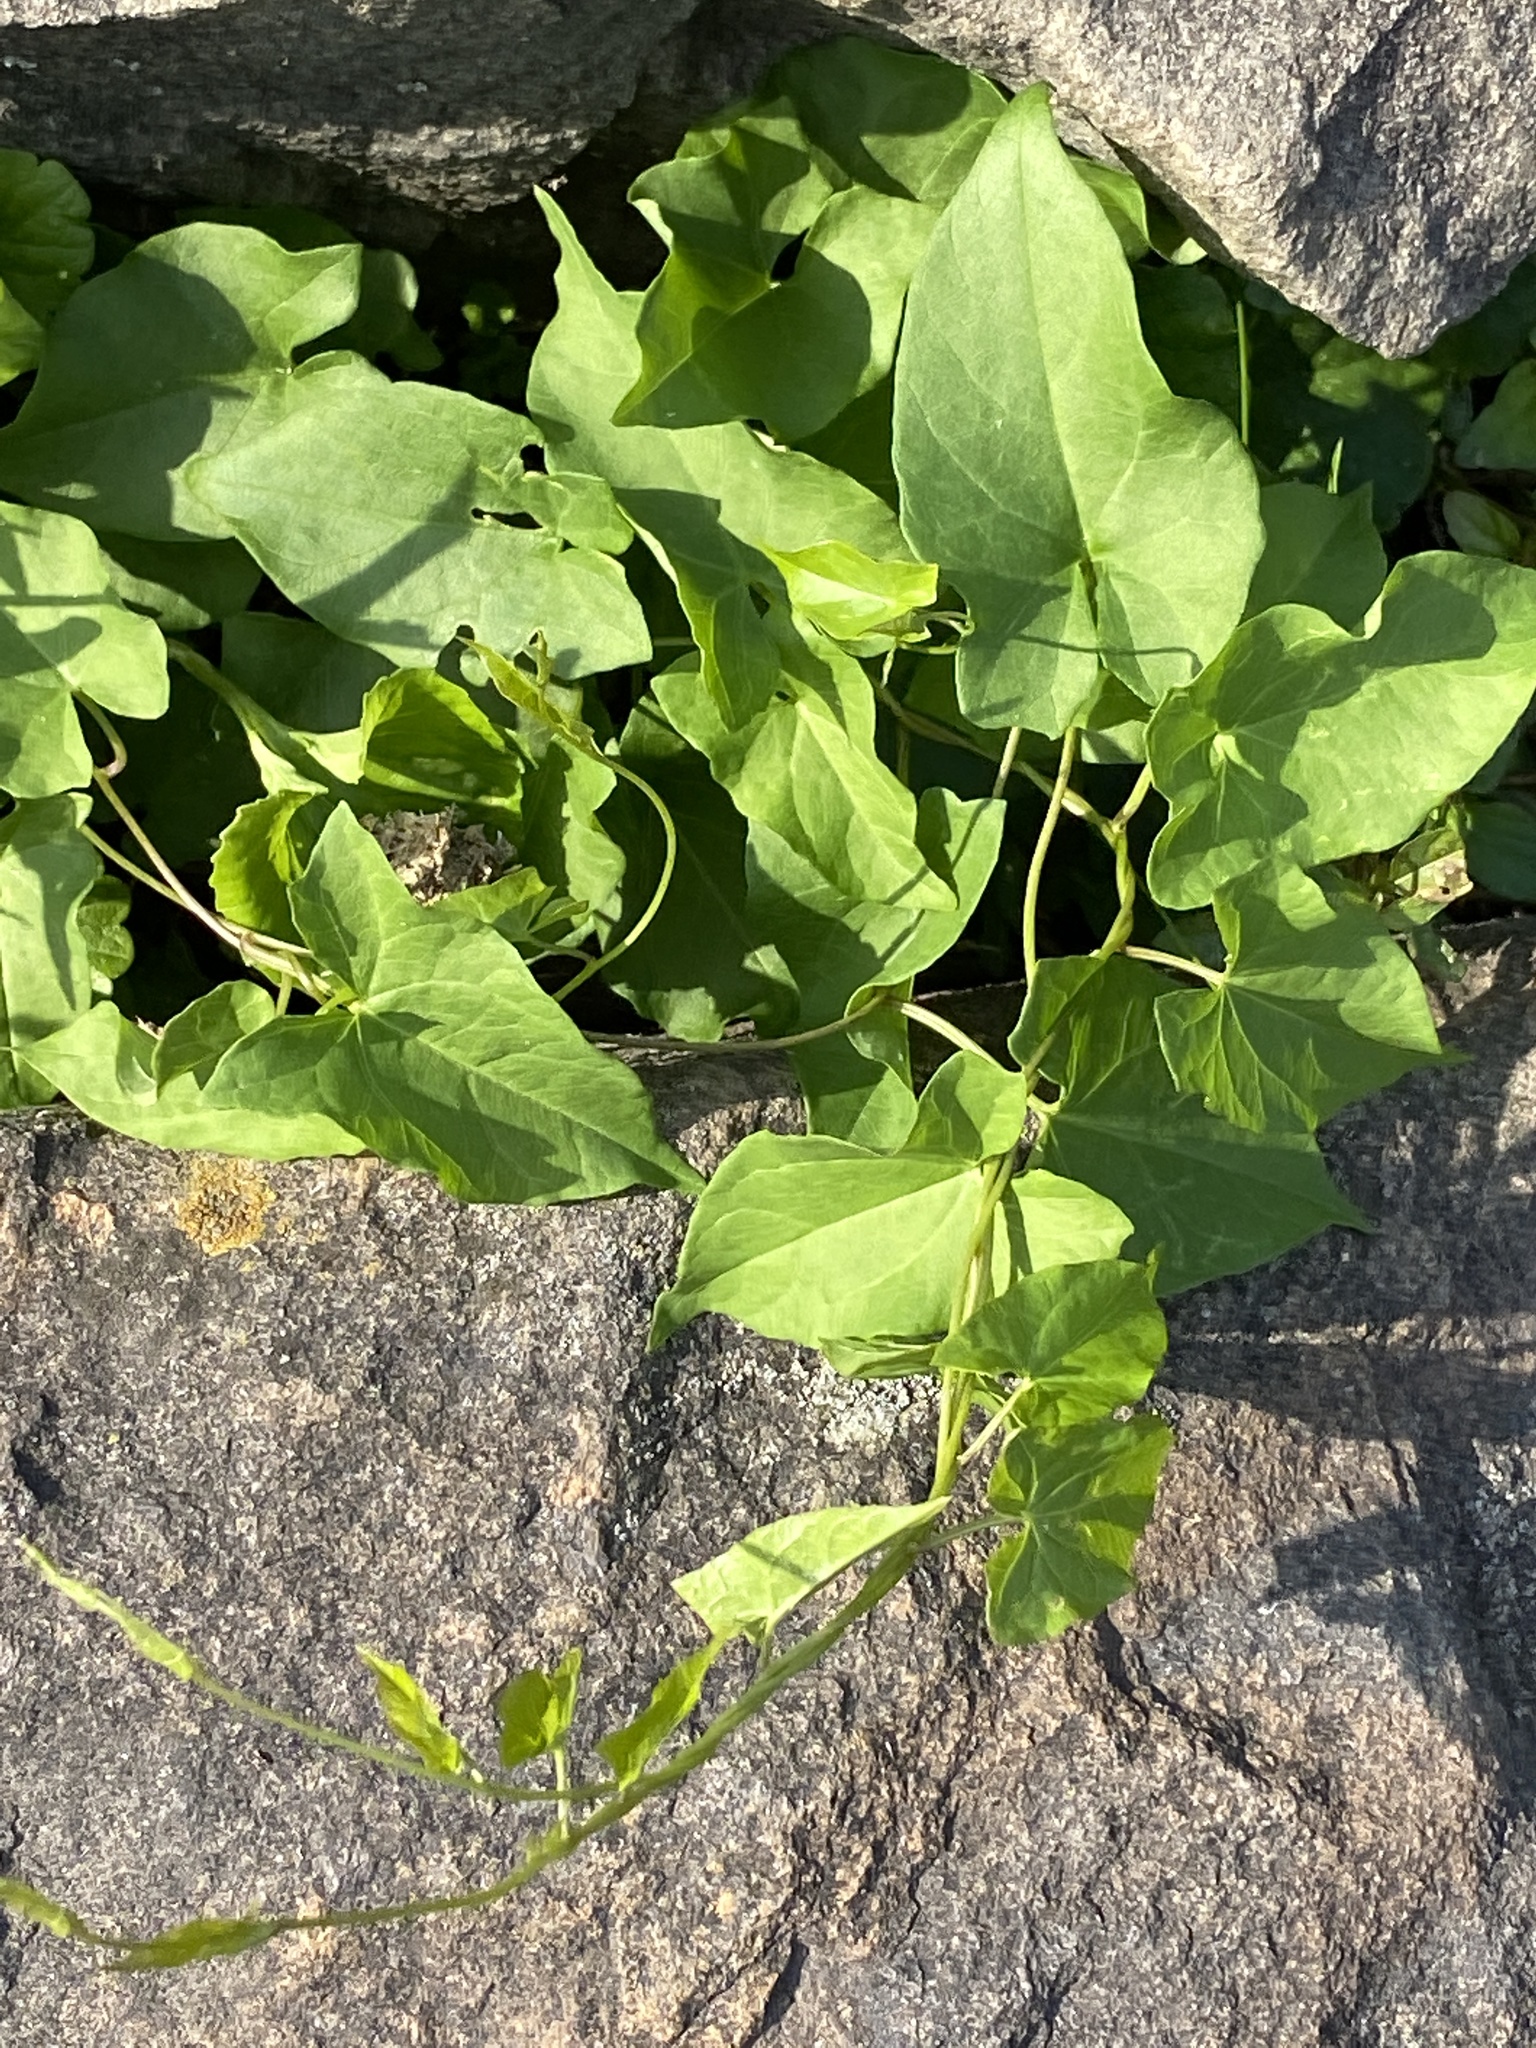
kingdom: Plantae
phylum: Tracheophyta
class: Magnoliopsida
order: Solanales
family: Convolvulaceae
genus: Calystegia
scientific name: Calystegia sepium
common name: Hedge bindweed
